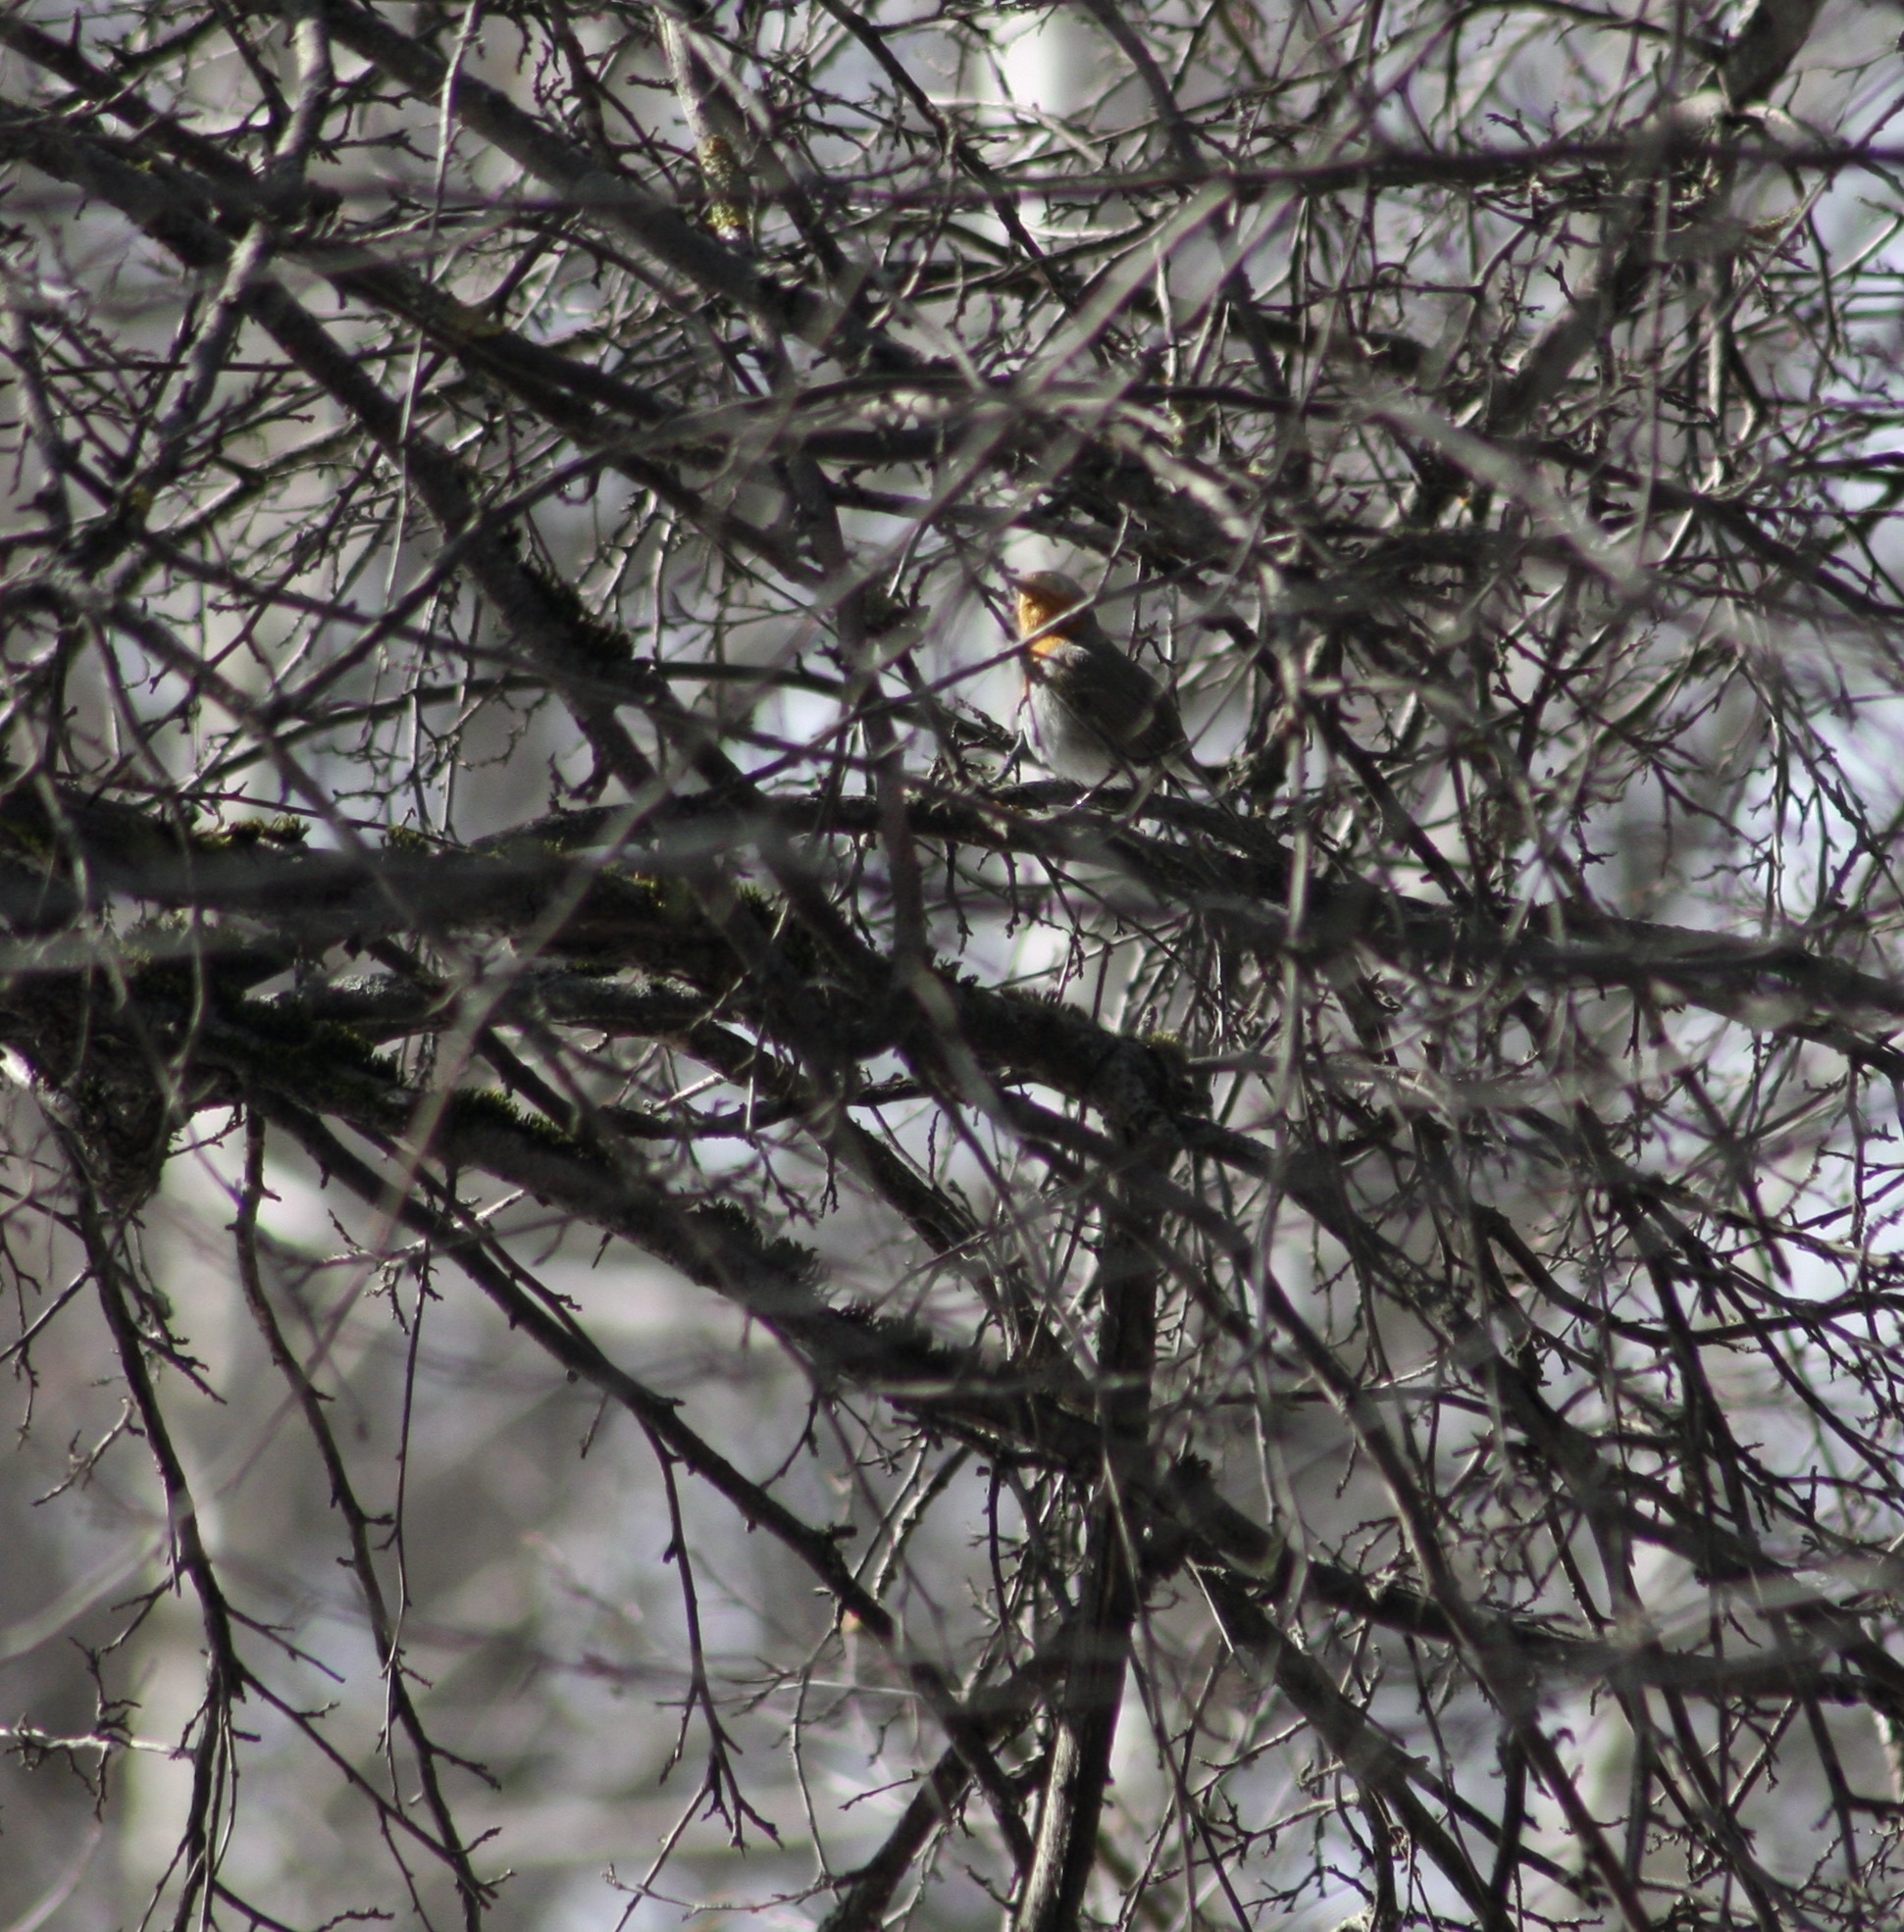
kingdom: Animalia
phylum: Chordata
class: Aves
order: Passeriformes
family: Muscicapidae
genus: Erithacus
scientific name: Erithacus rubecula
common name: European robin
